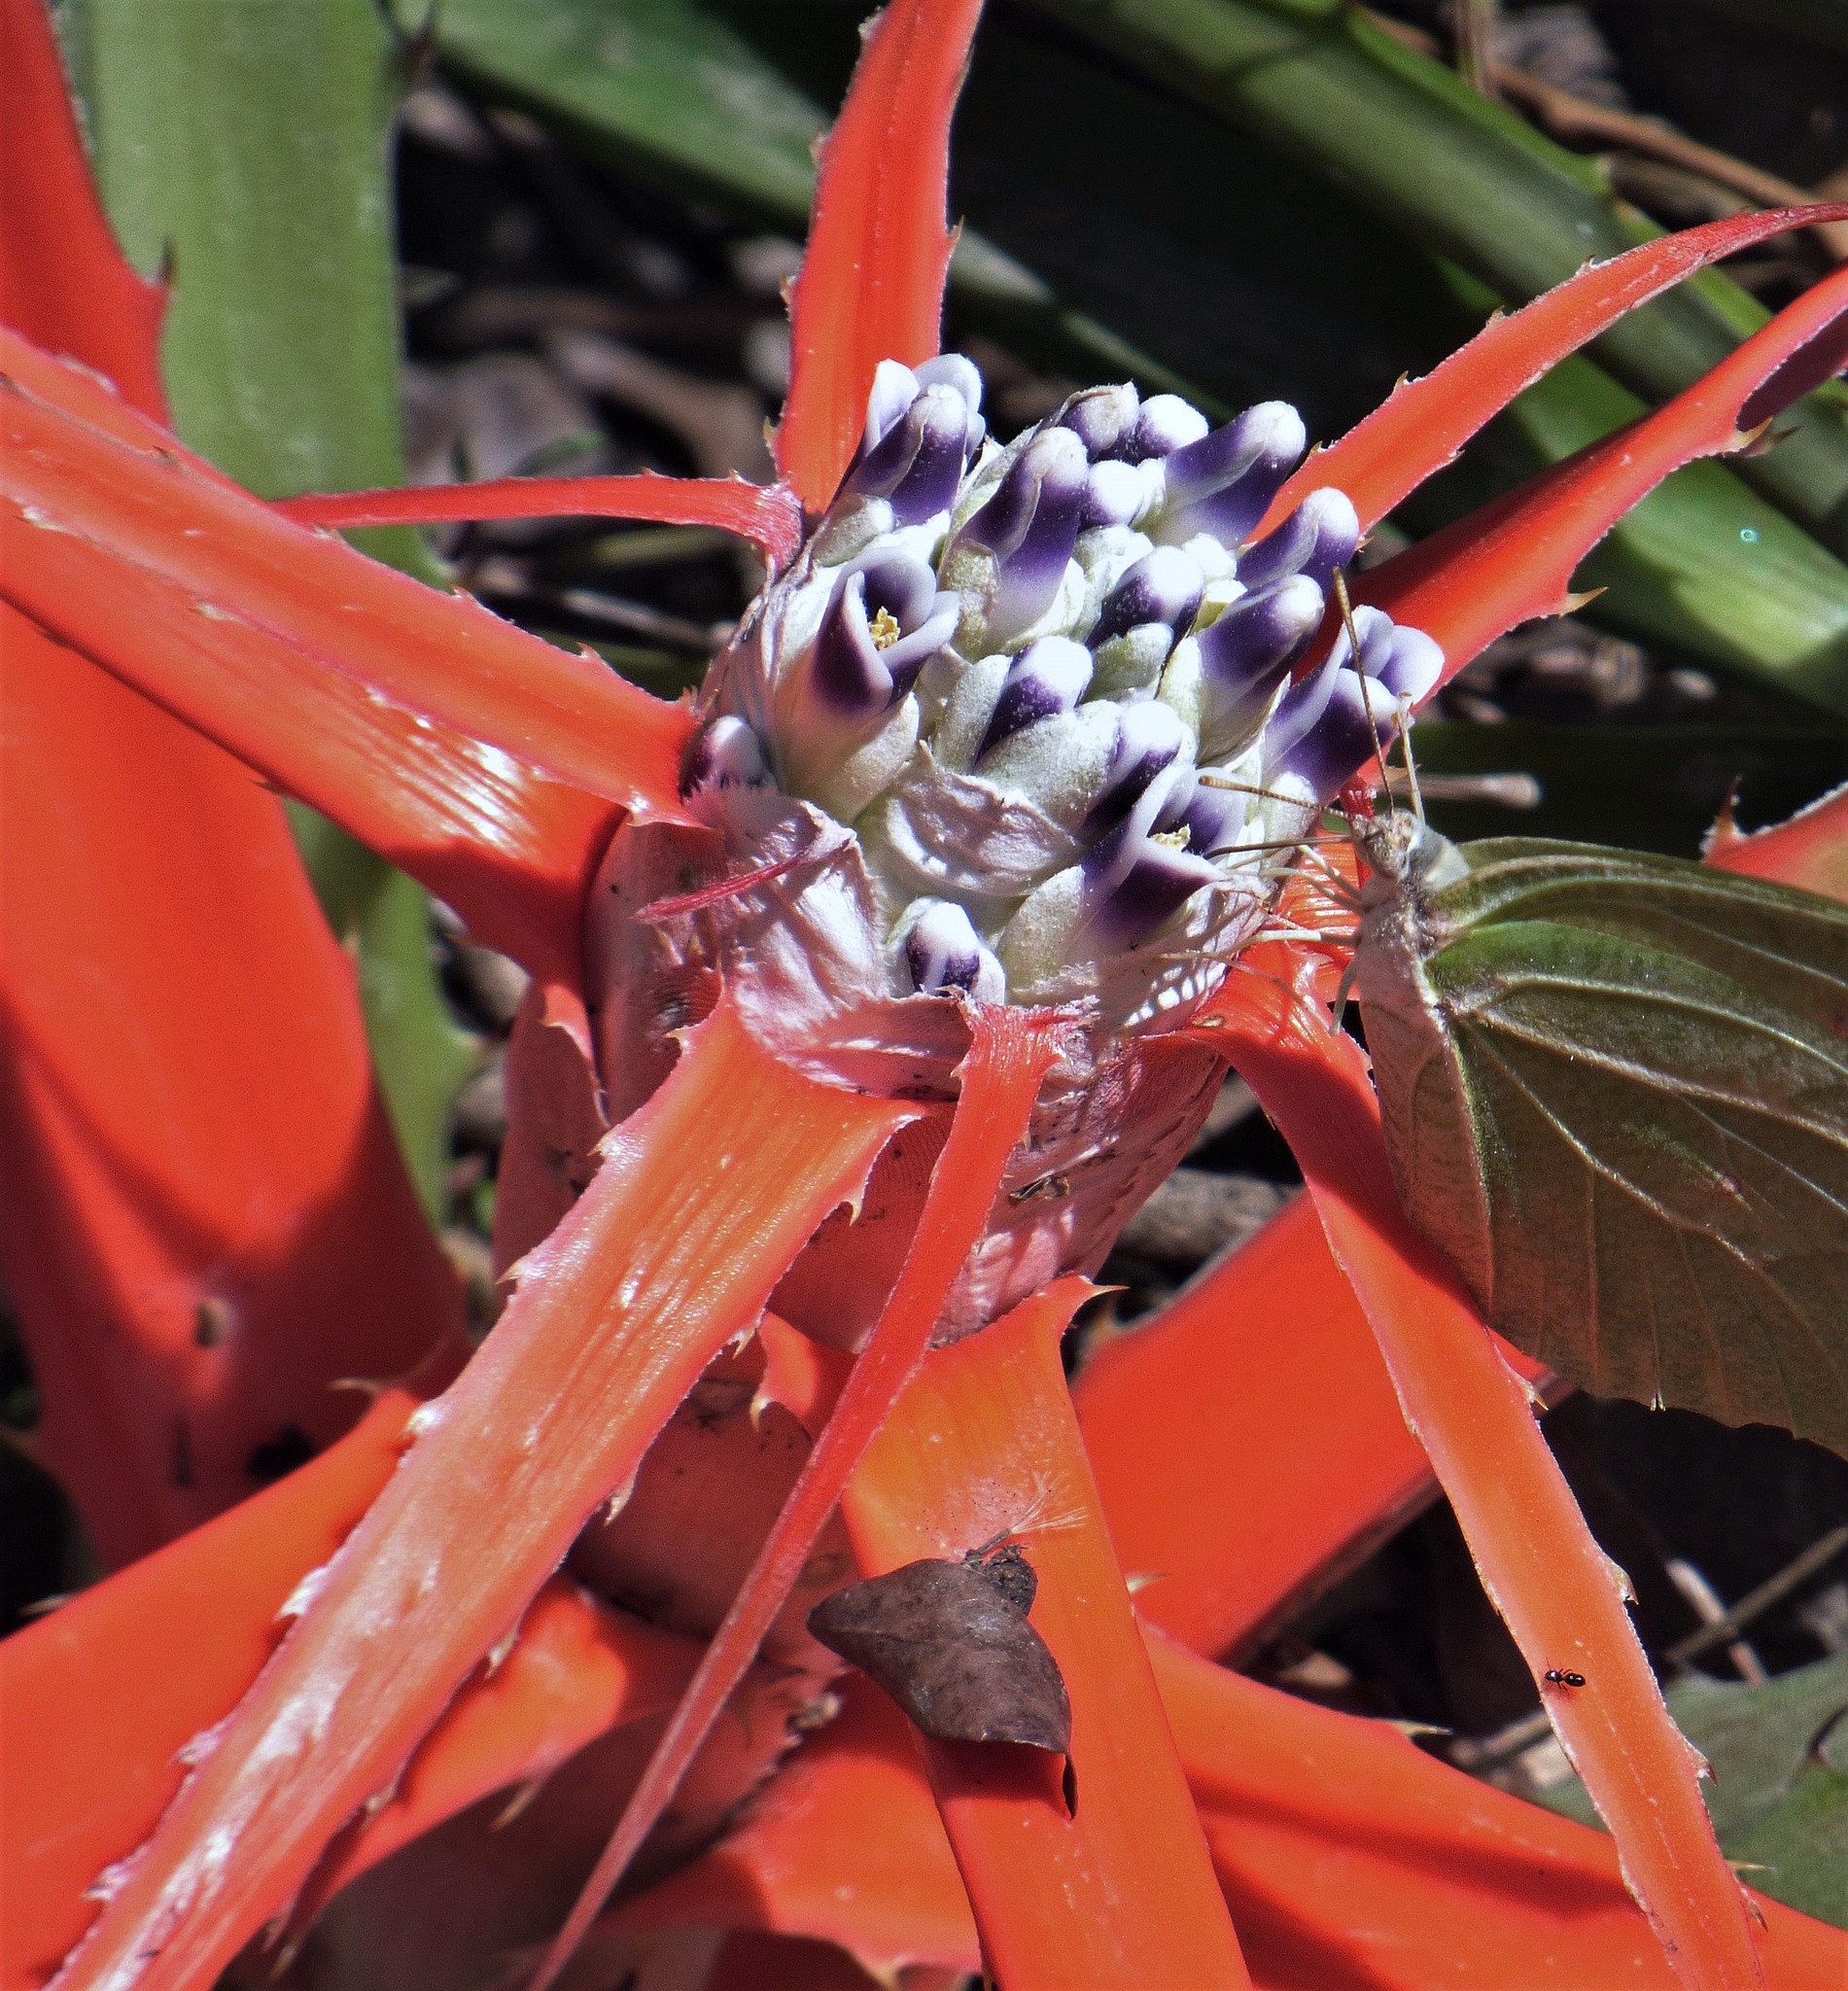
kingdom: Plantae
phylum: Tracheophyta
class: Liliopsida
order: Poales
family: Bromeliaceae
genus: Bromelia
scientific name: Bromelia serra
